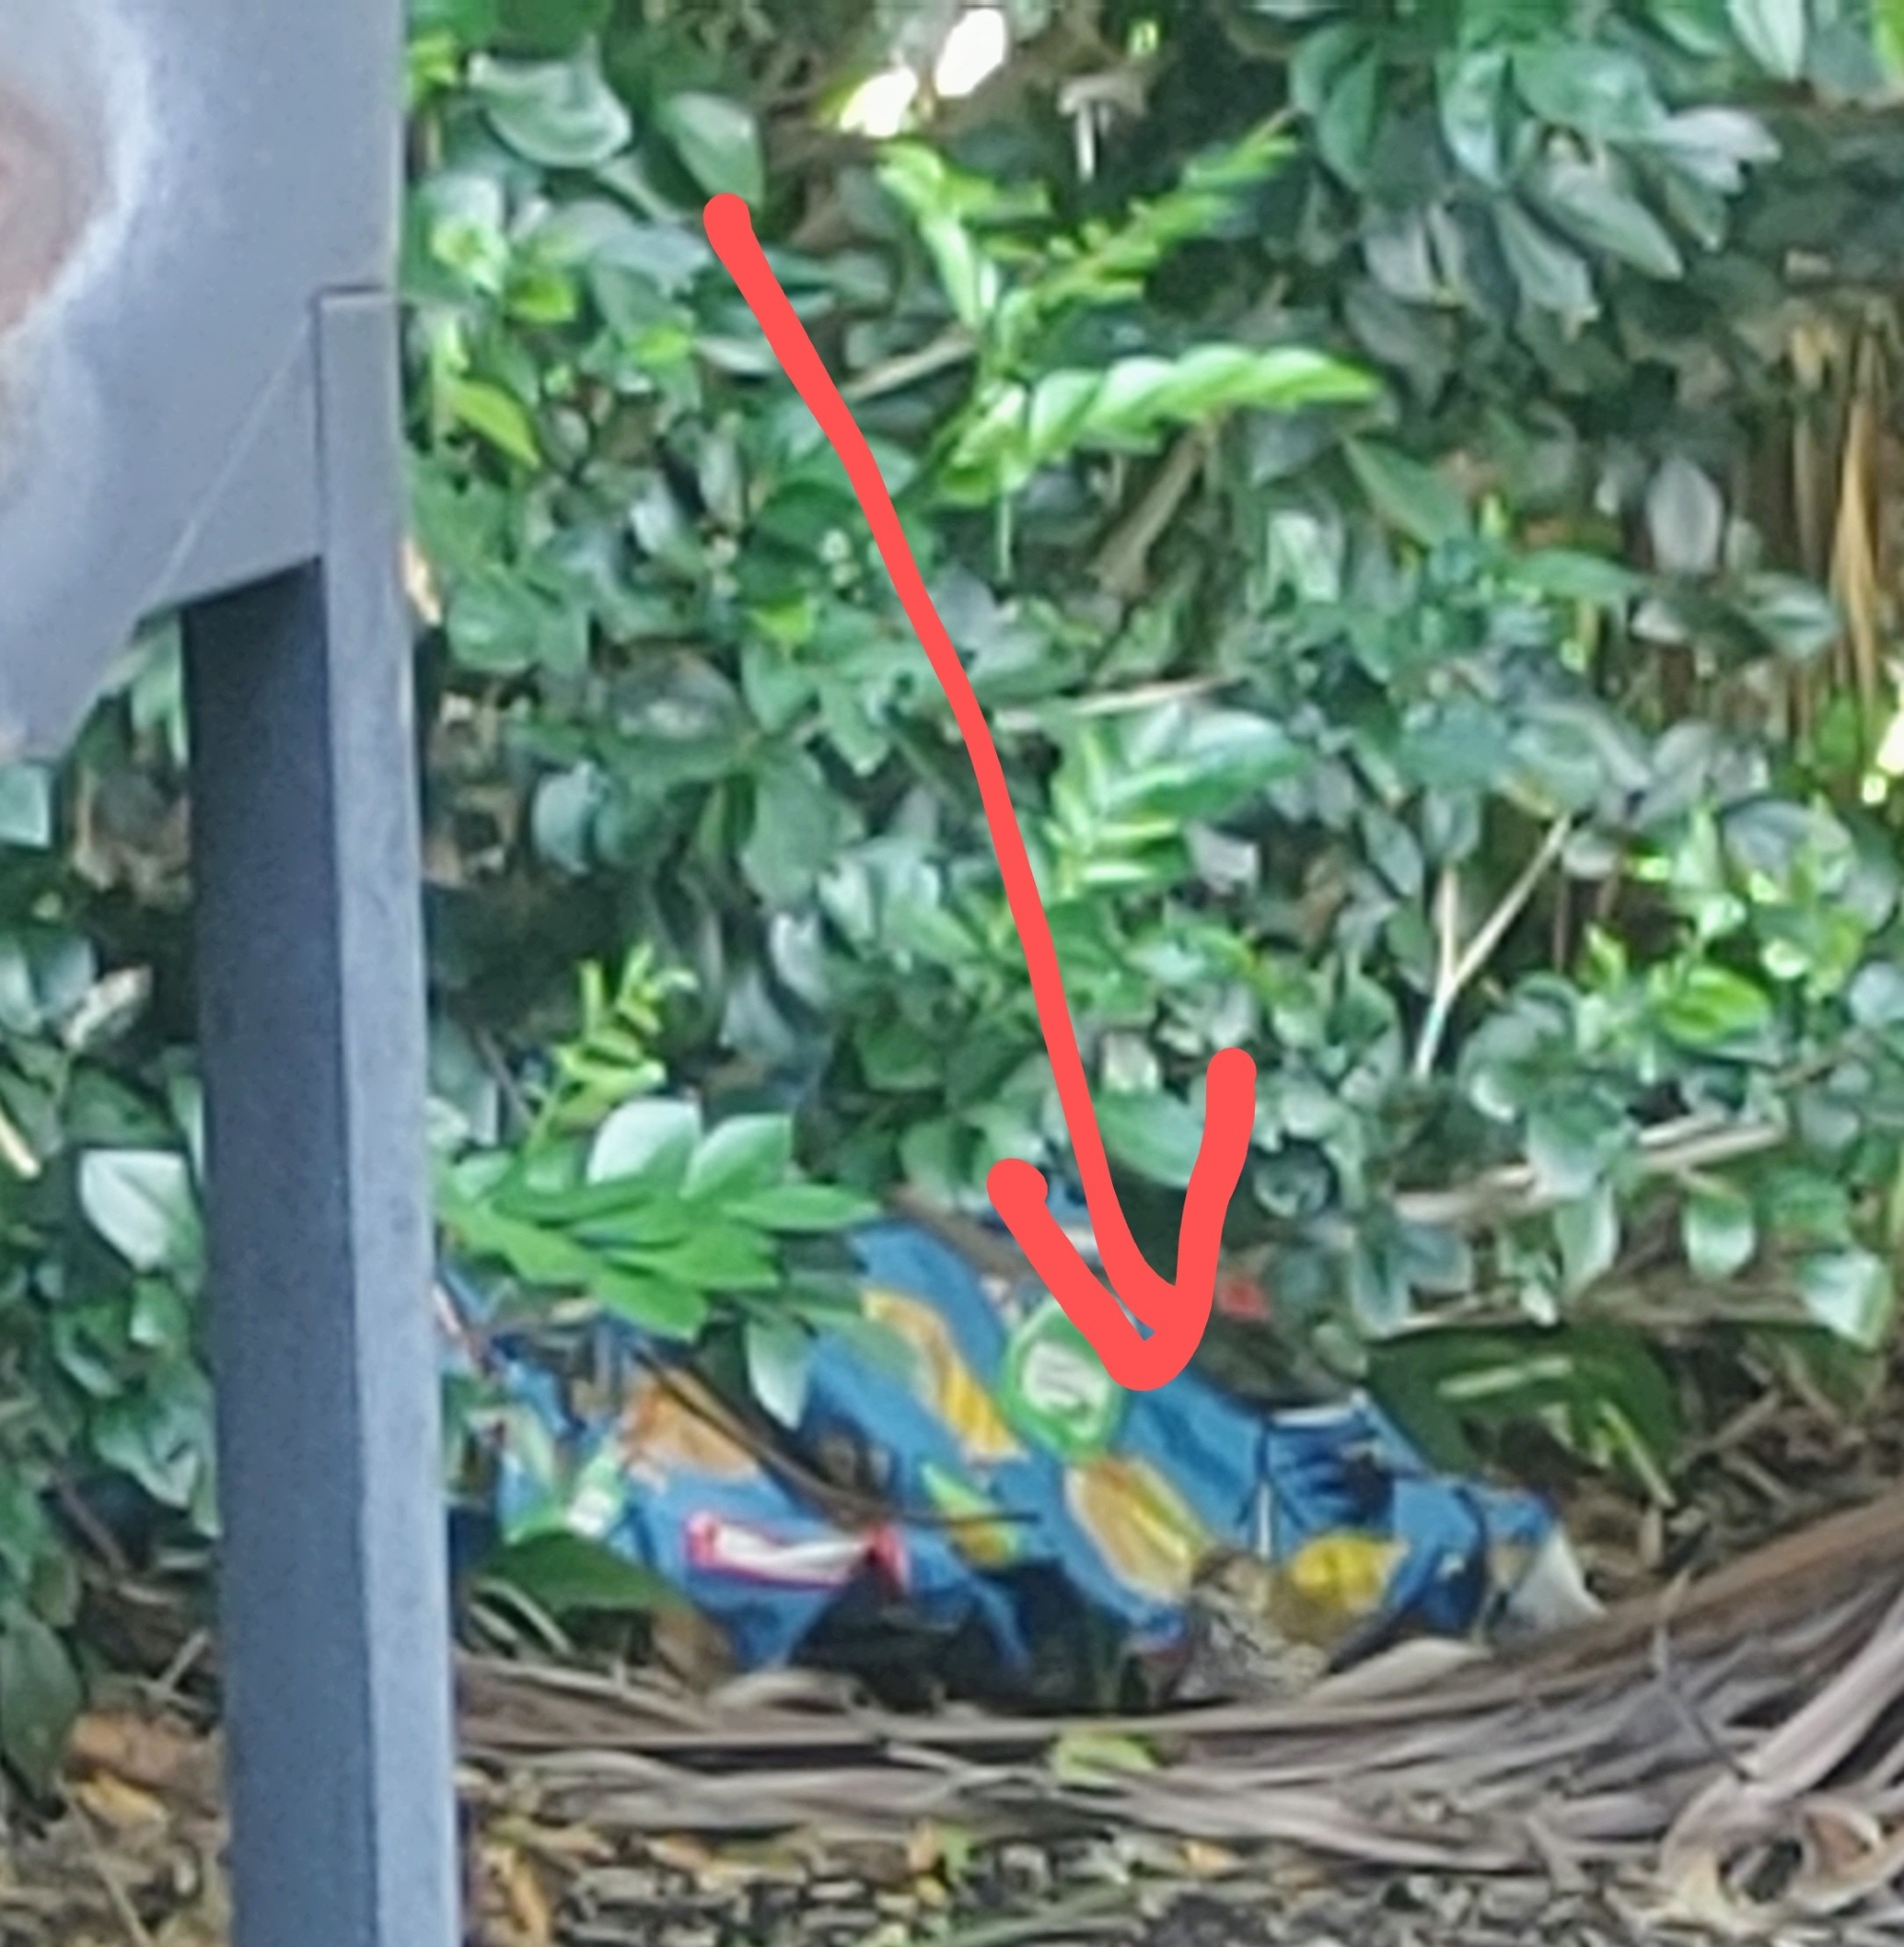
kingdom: Animalia
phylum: Chordata
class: Aves
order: Passeriformes
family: Parulidae
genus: Seiurus
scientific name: Seiurus aurocapilla
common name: Ovenbird
